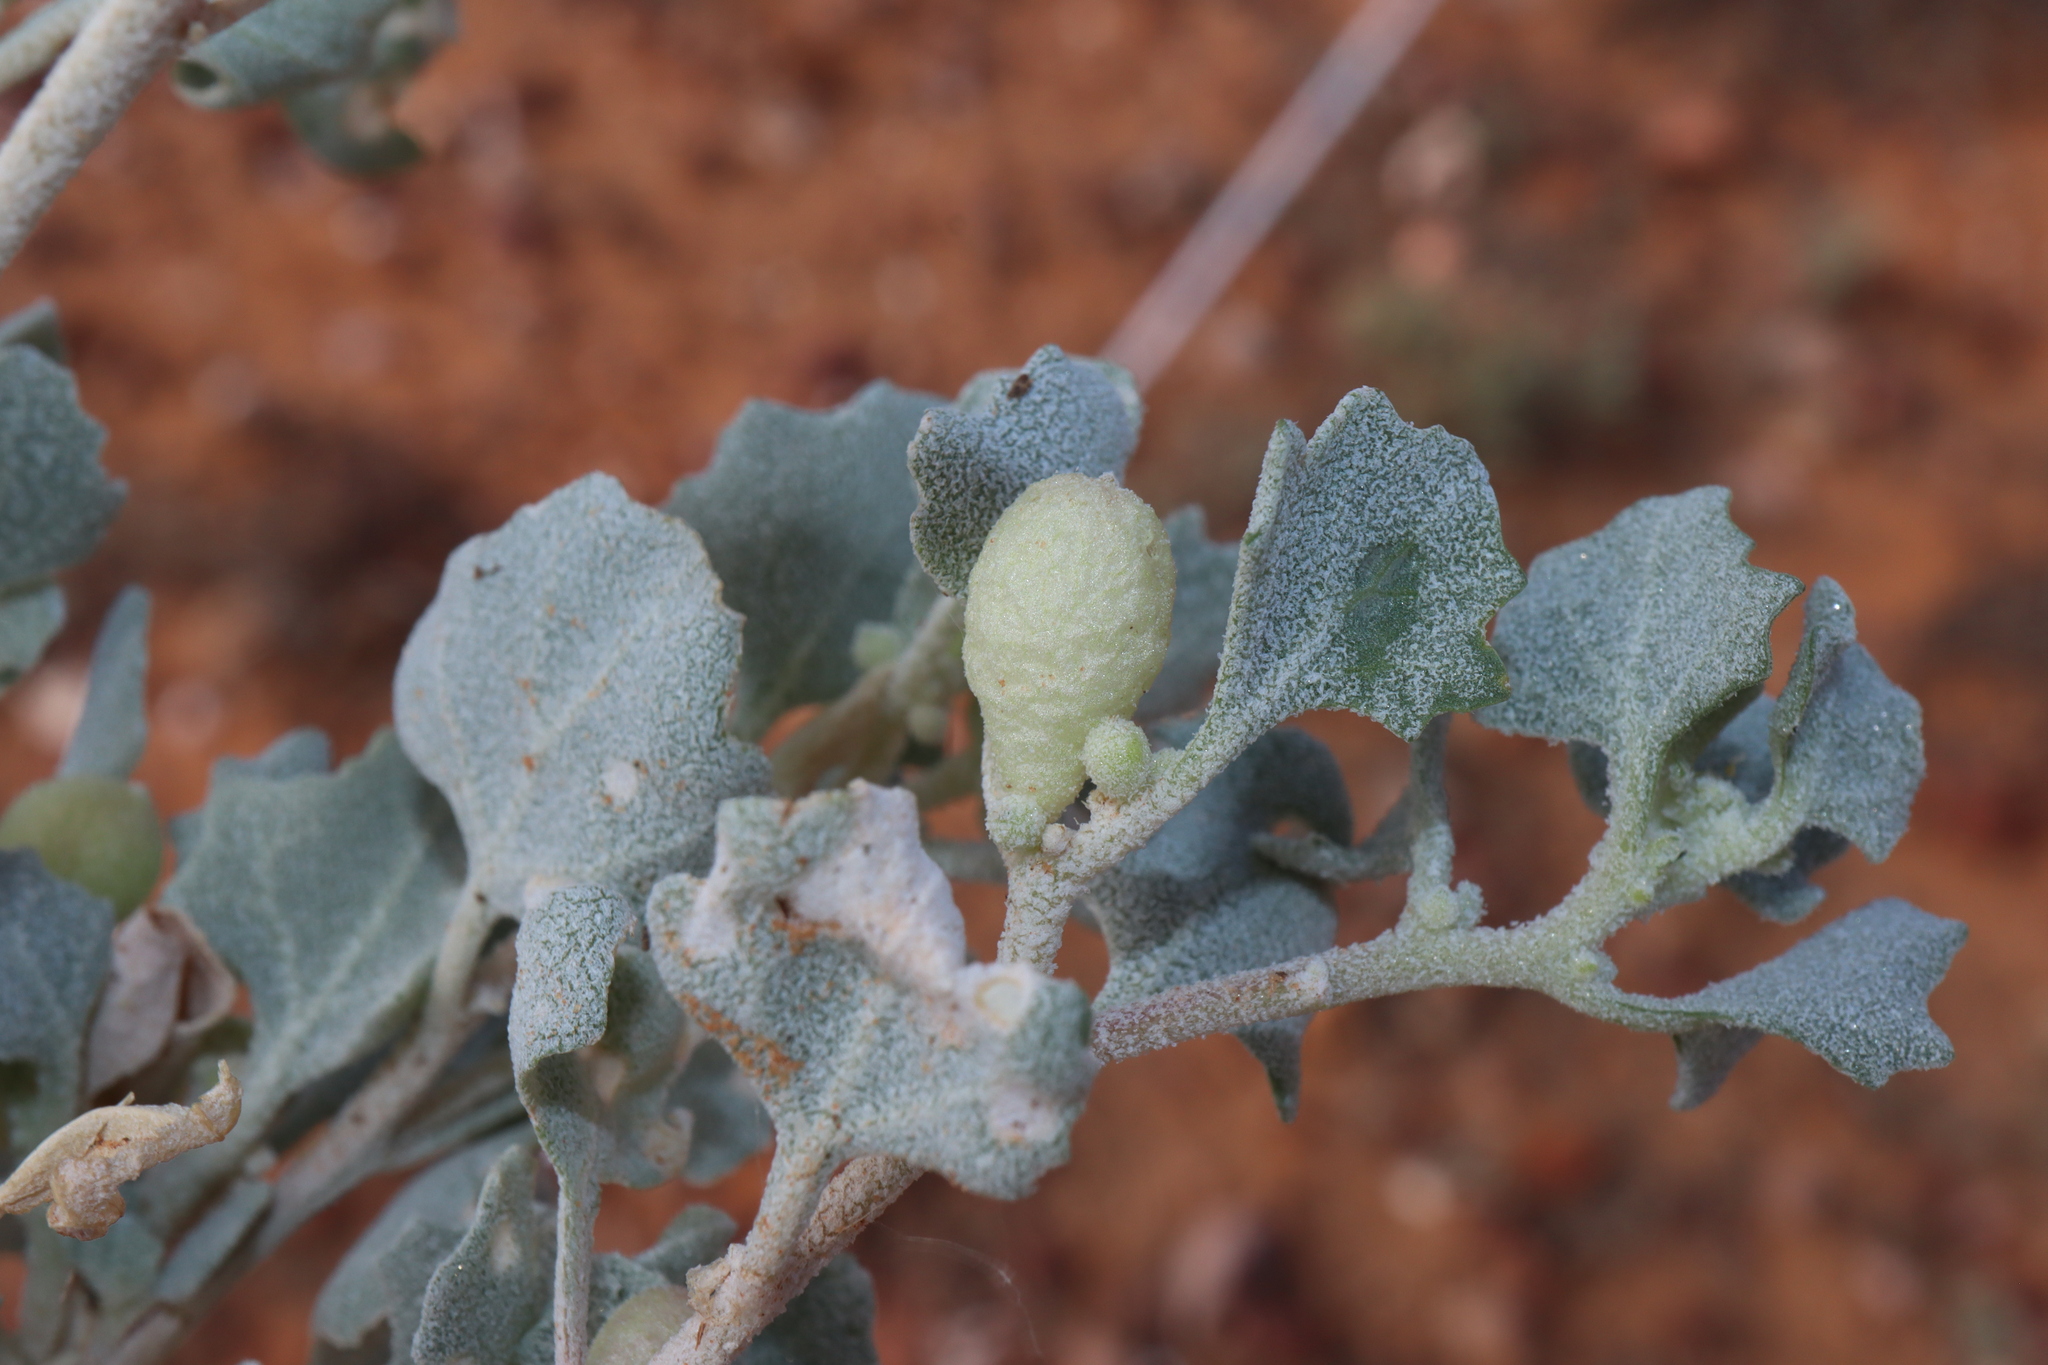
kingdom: Plantae
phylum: Tracheophyta
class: Magnoliopsida
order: Caryophyllales
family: Amaranthaceae
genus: Atriplex
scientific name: Atriplex holocarpa
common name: Pop saltbush
